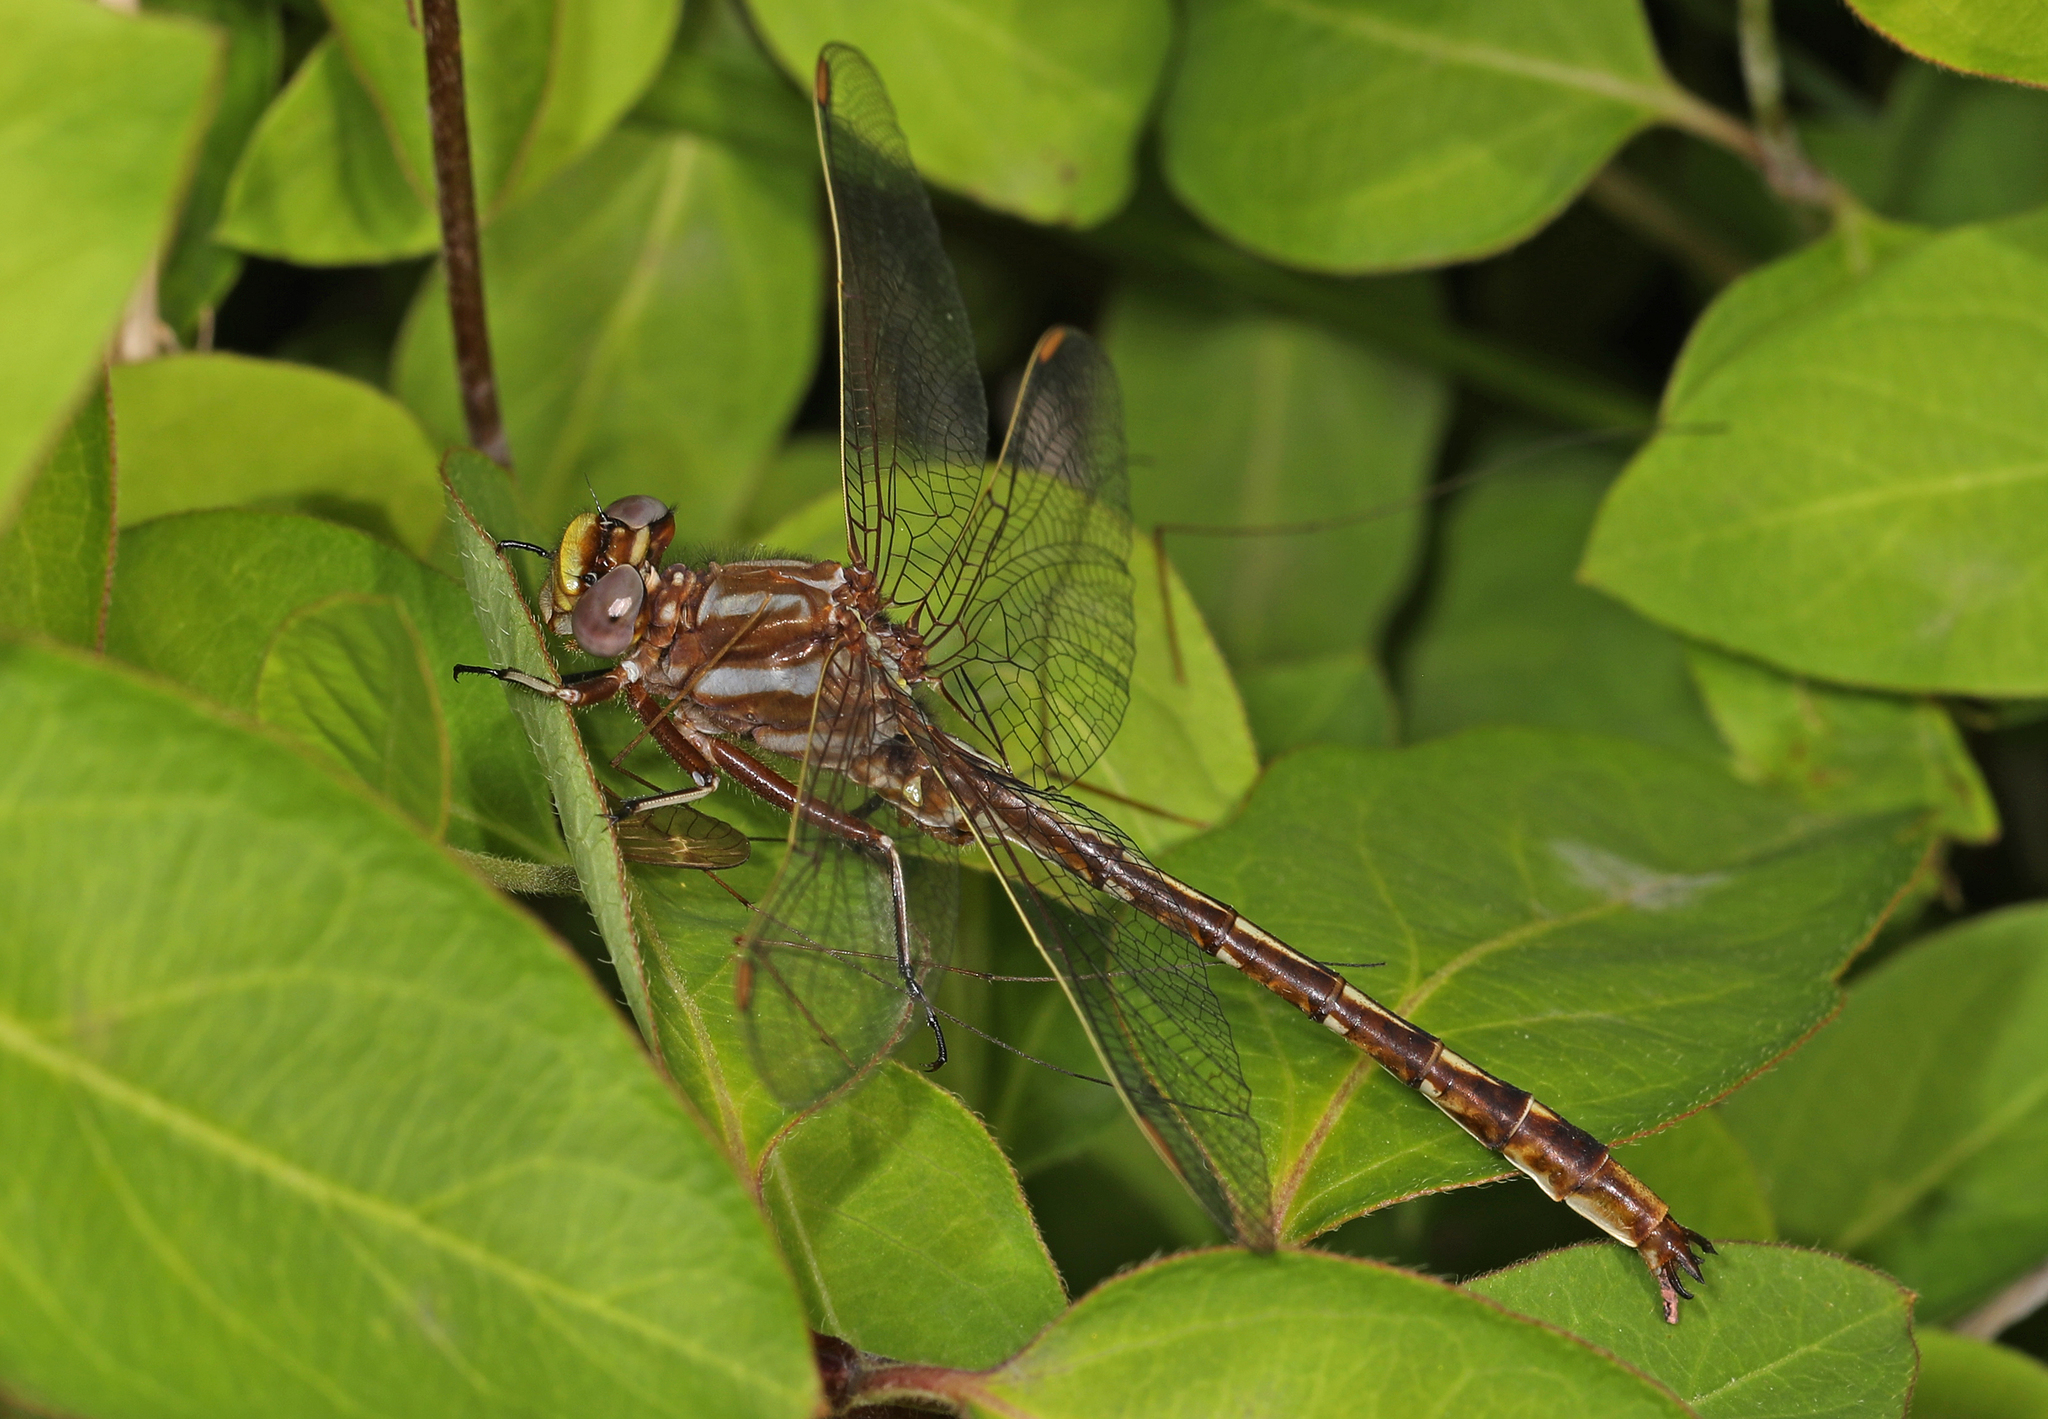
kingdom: Animalia
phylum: Arthropoda
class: Insecta
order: Odonata
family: Gomphidae
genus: Phanogomphus
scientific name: Phanogomphus lividus
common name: Ashy clubtail
